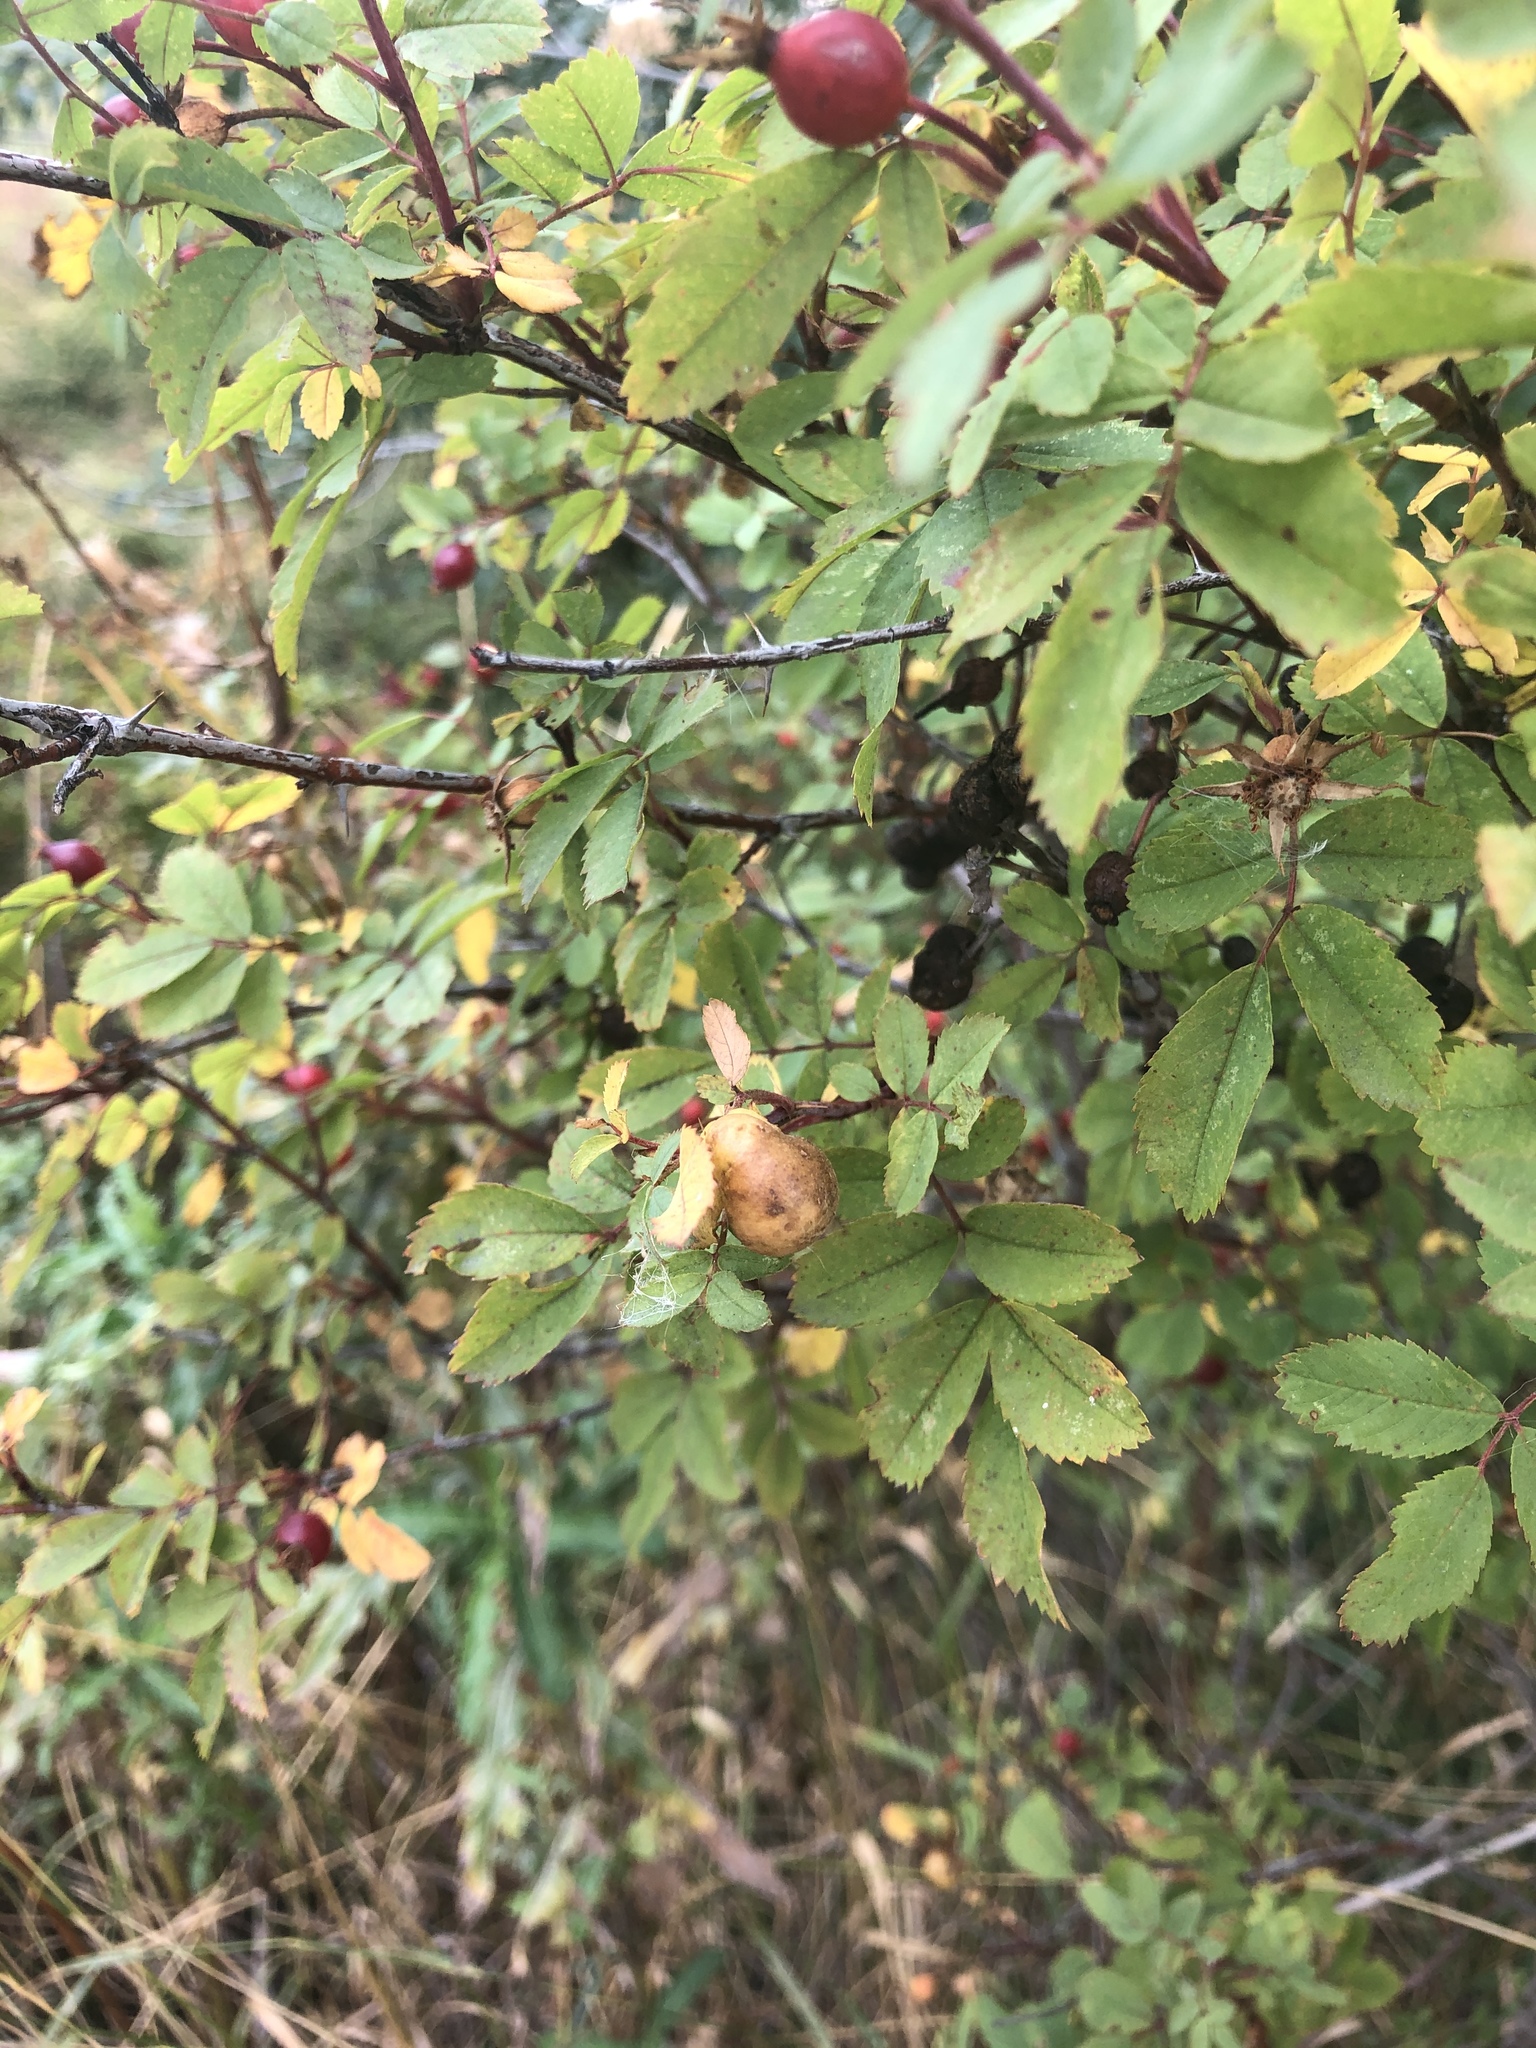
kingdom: Animalia
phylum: Arthropoda
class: Insecta
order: Hymenoptera
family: Cynipidae
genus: Diplolepis
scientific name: Diplolepis variabilis
